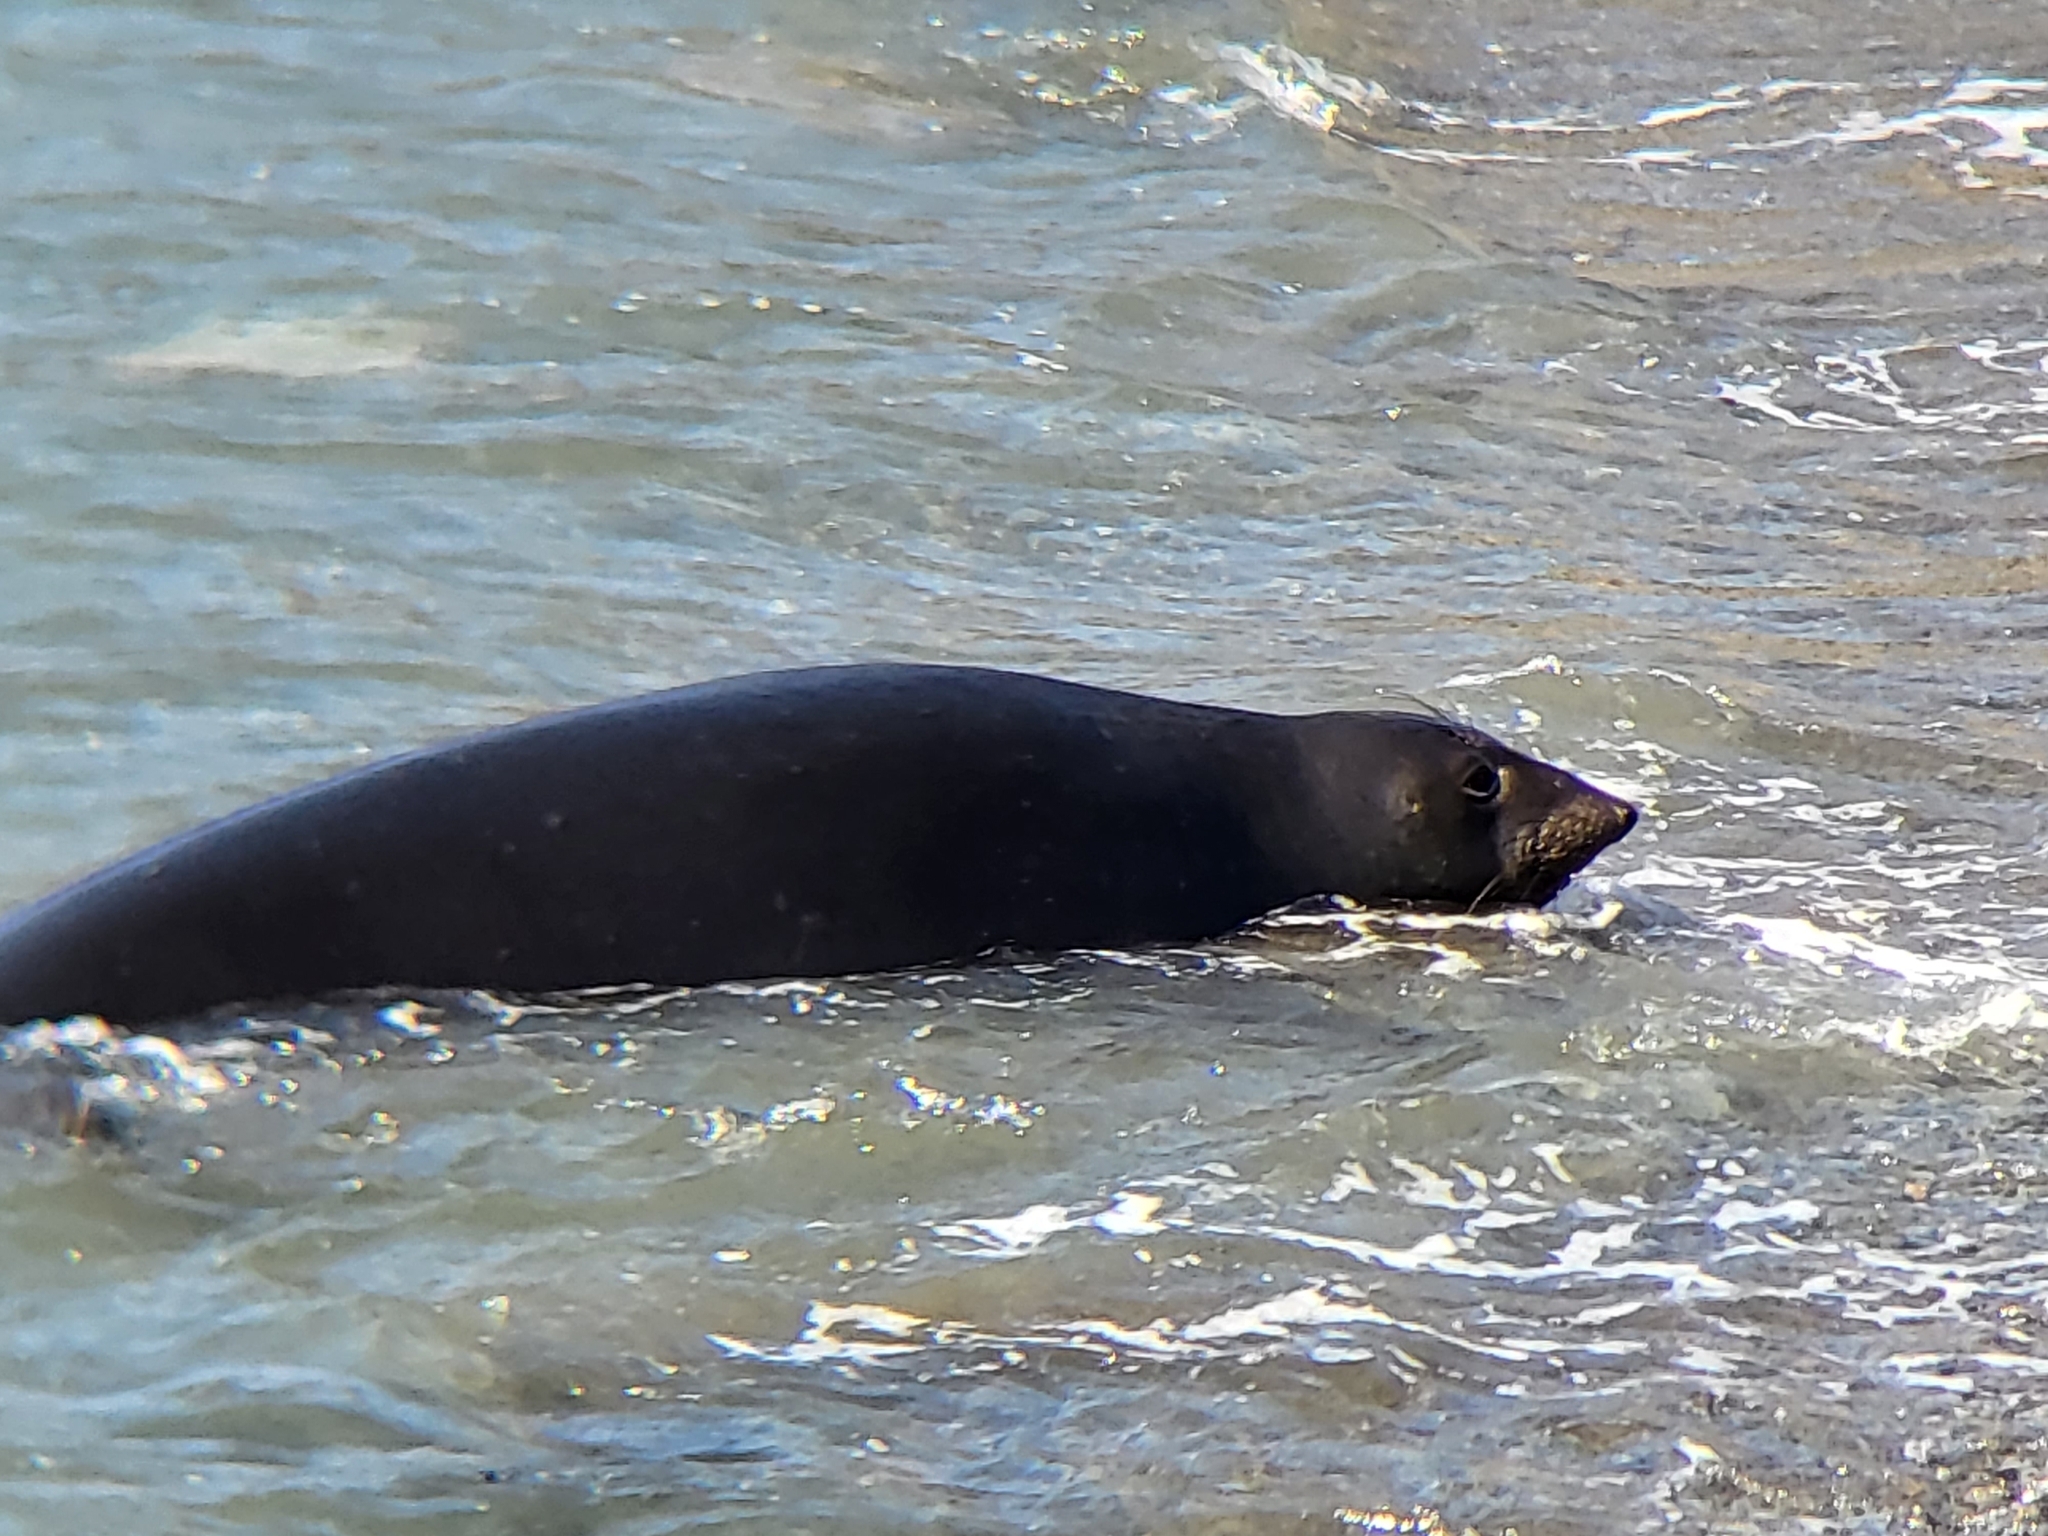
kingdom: Animalia
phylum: Chordata
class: Mammalia
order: Carnivora
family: Phocidae
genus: Mirounga
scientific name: Mirounga angustirostris
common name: Northern elephant seal
